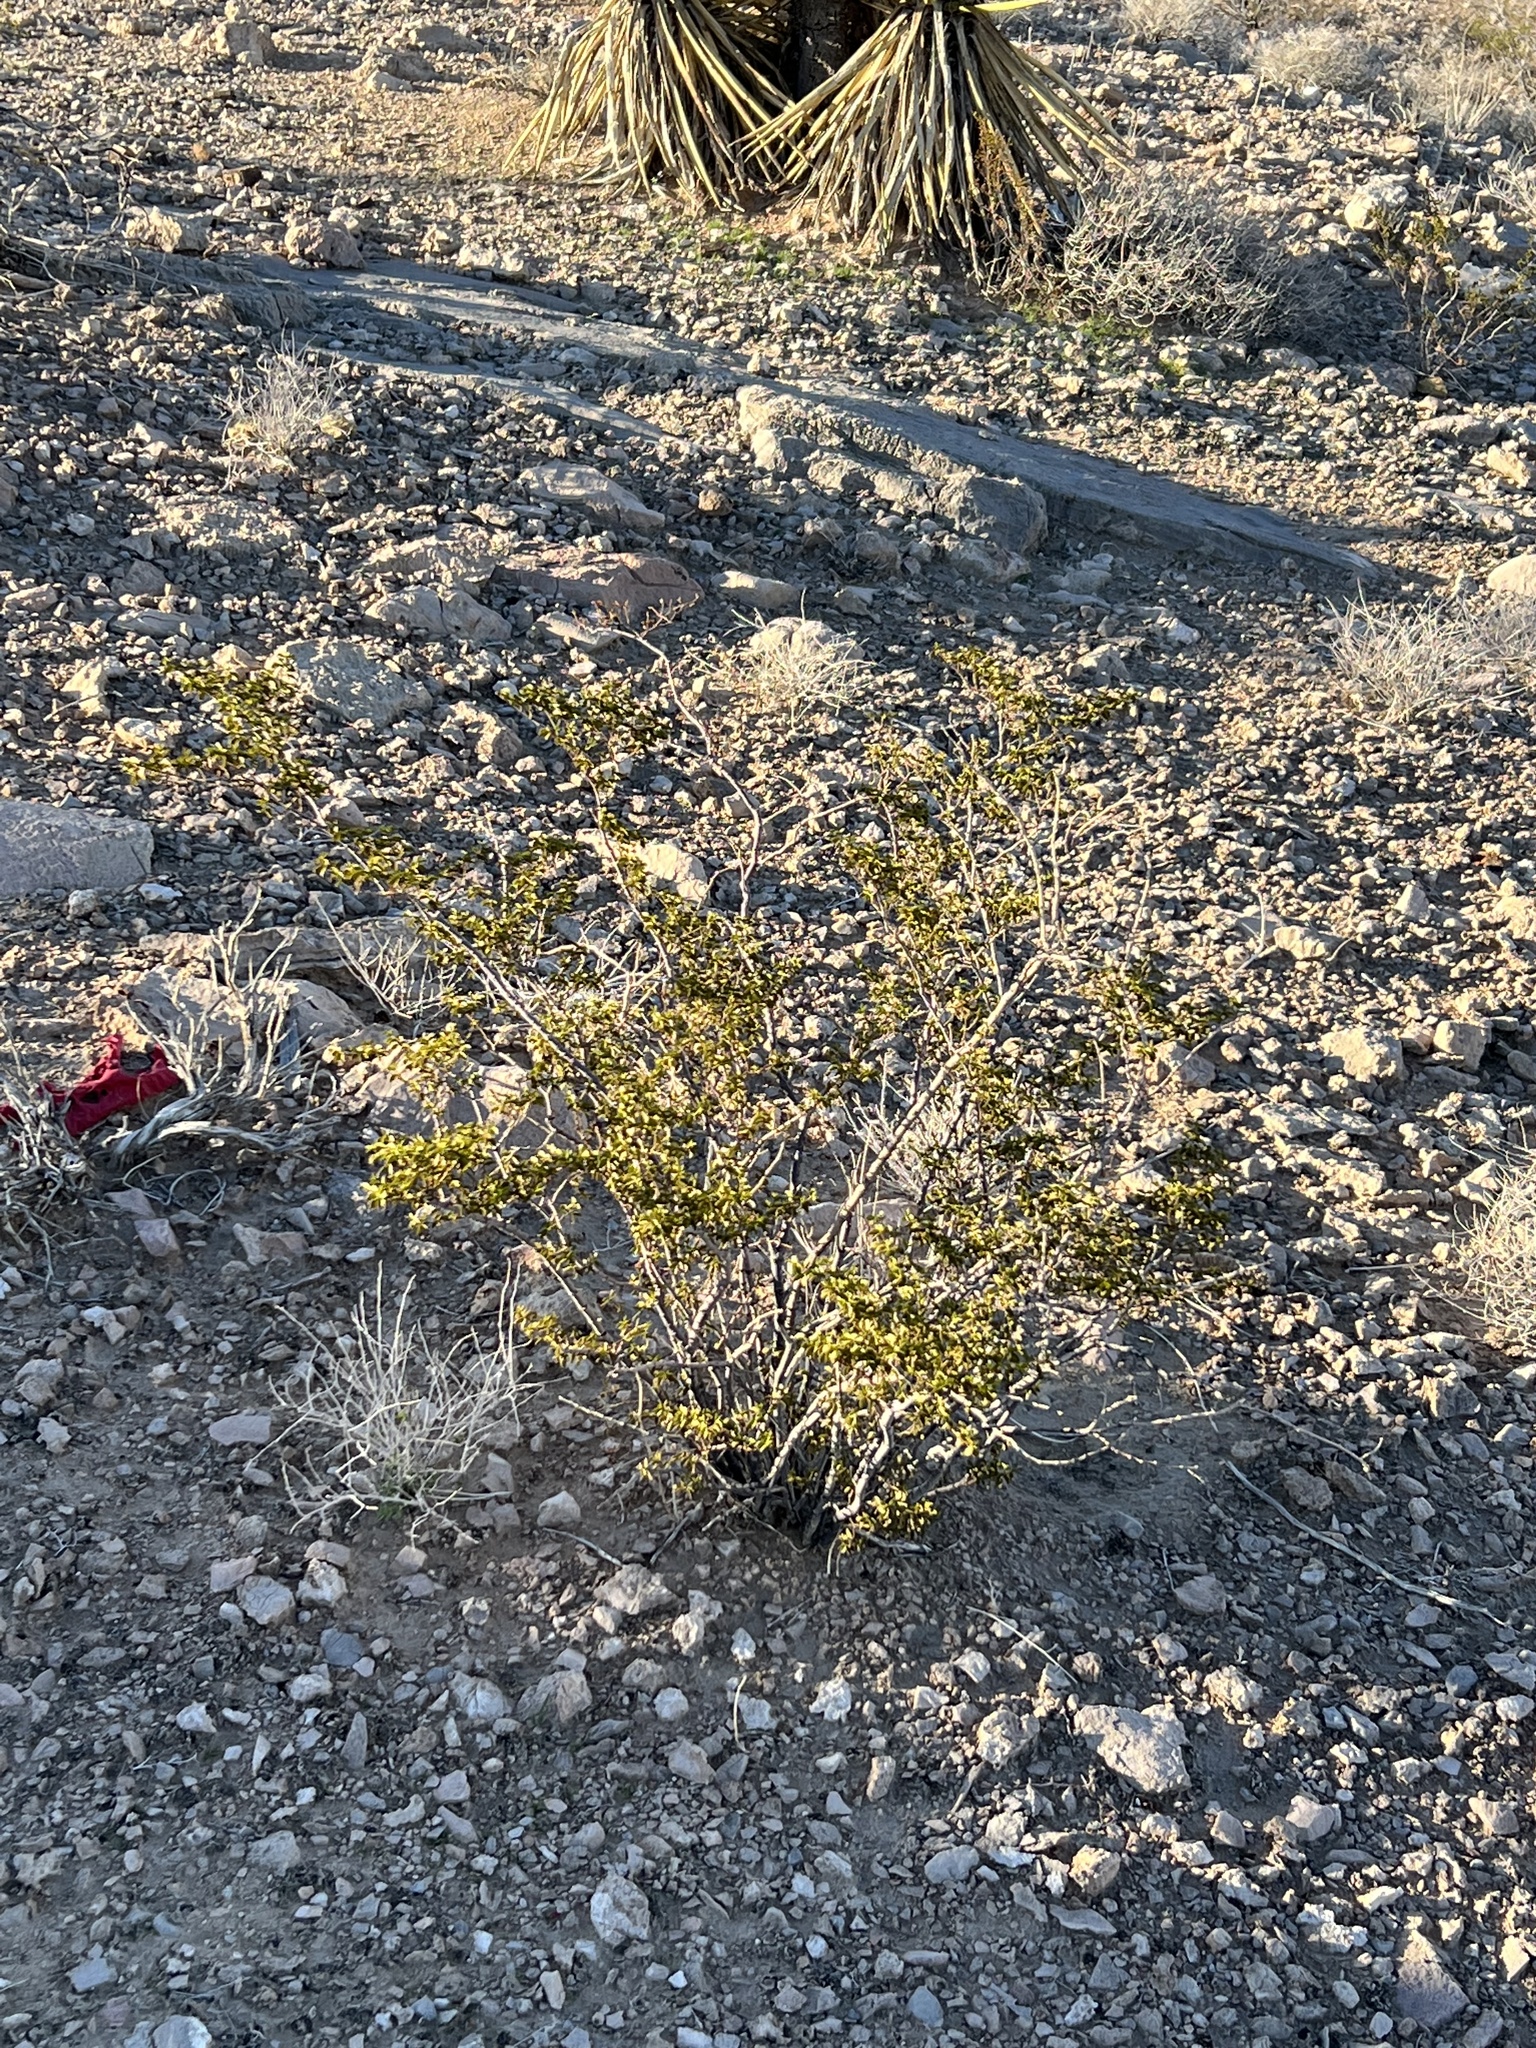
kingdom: Plantae
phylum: Tracheophyta
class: Magnoliopsida
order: Zygophyllales
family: Zygophyllaceae
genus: Larrea
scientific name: Larrea tridentata
